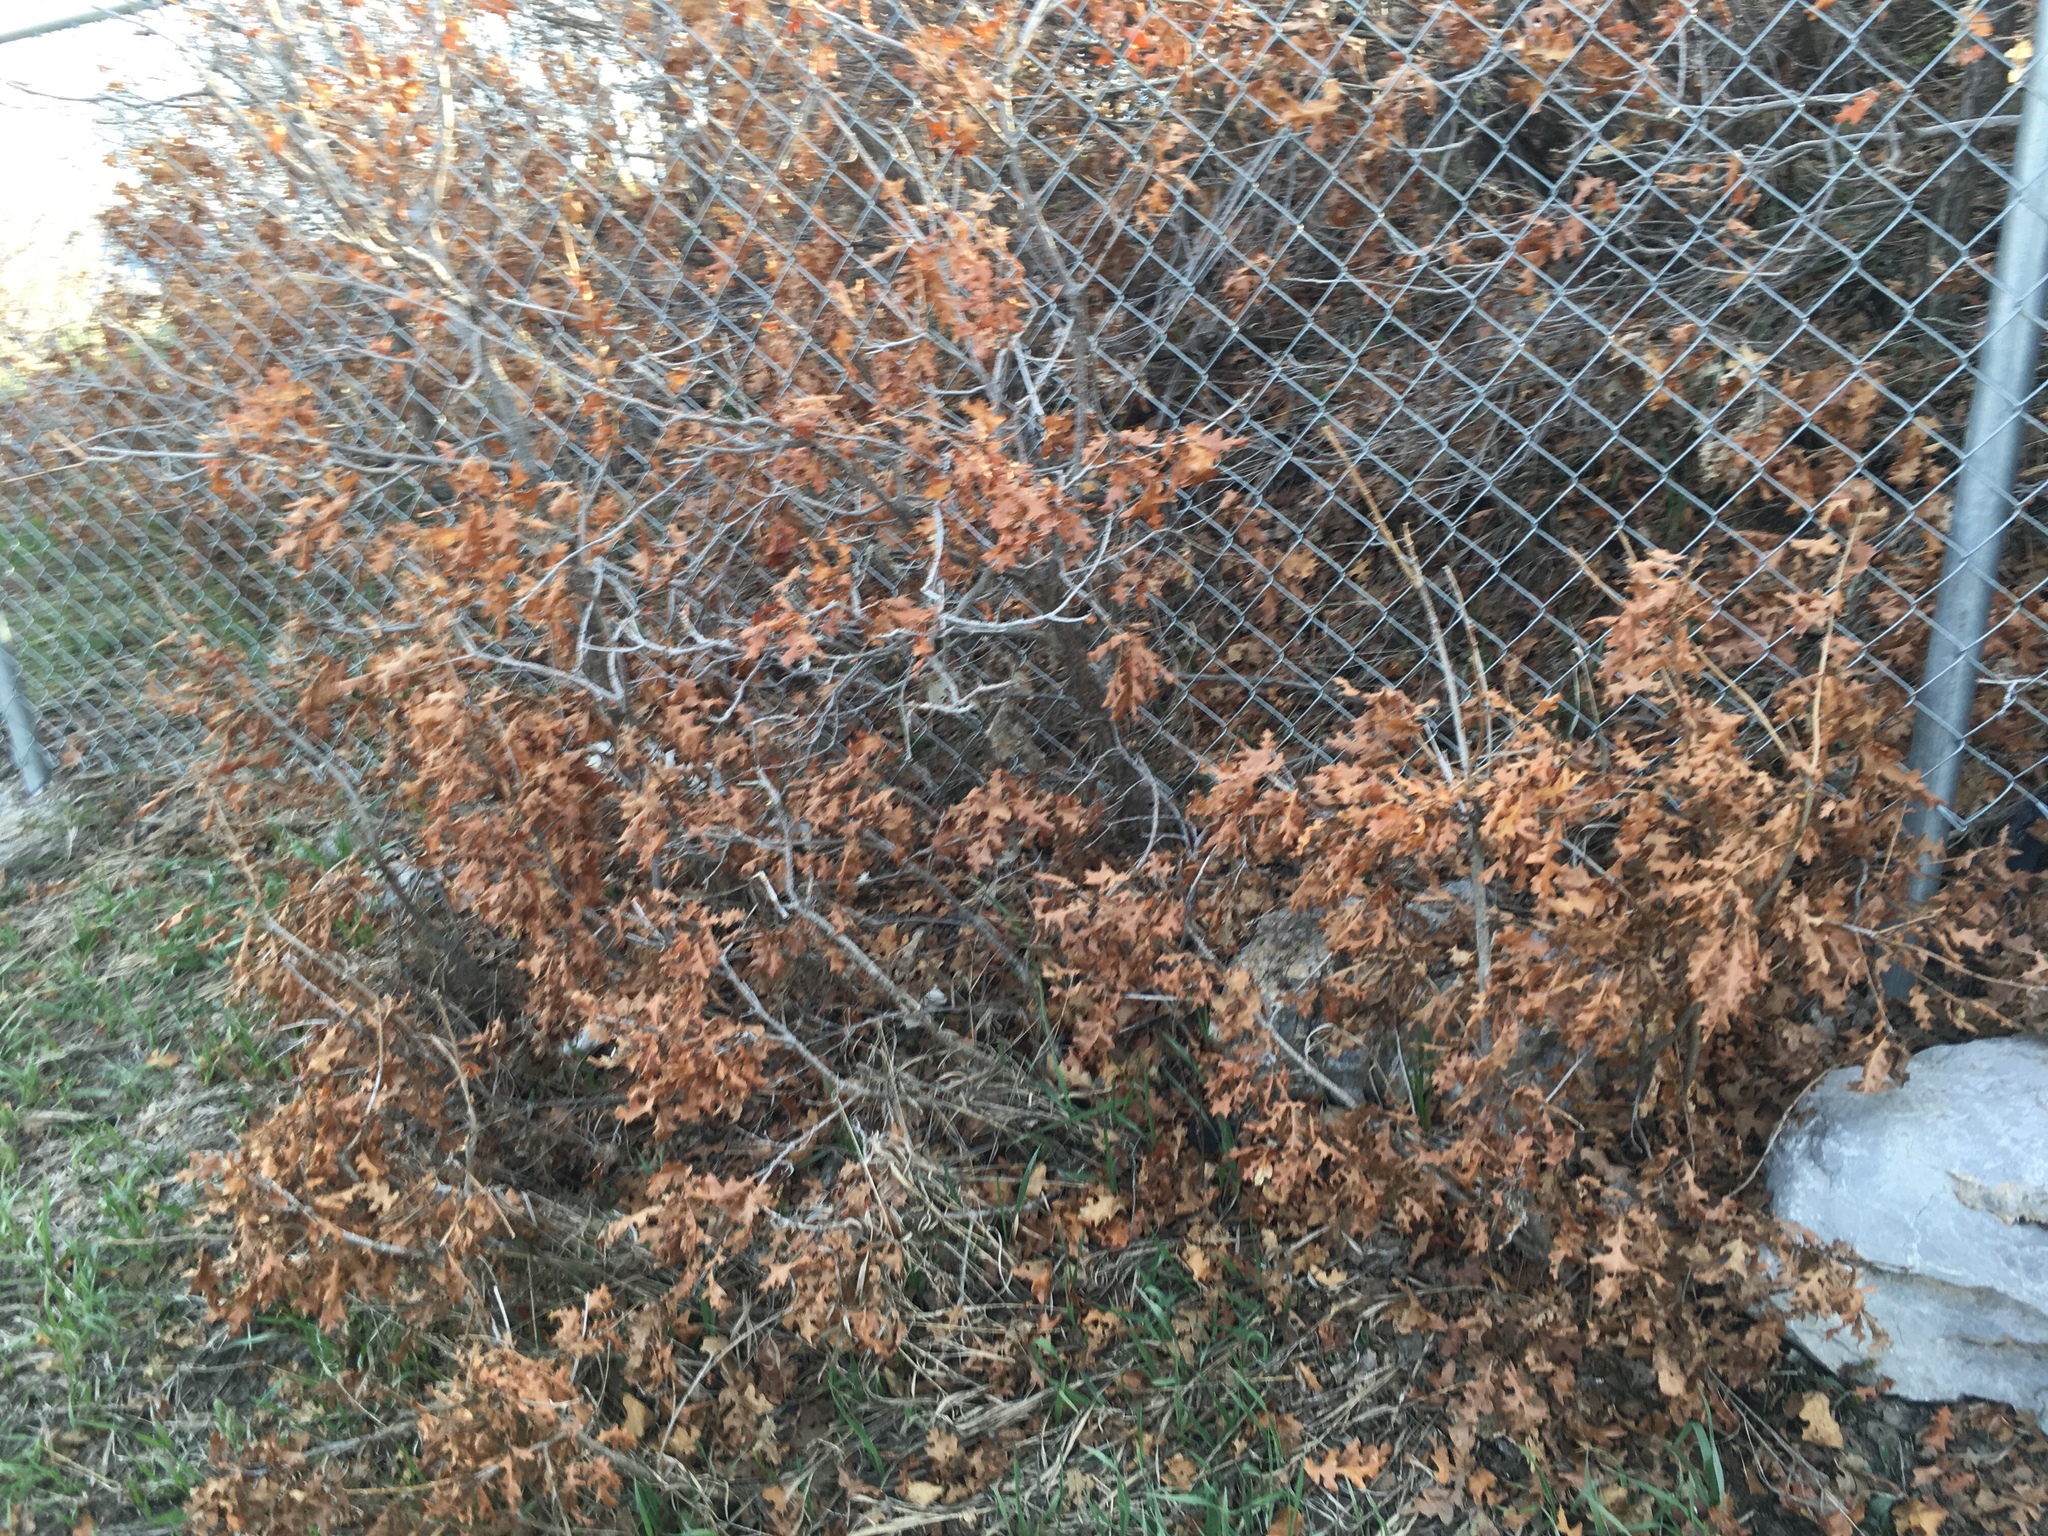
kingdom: Plantae
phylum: Tracheophyta
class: Magnoliopsida
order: Fagales
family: Fagaceae
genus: Quercus
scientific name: Quercus gambelii
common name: Gambel oak
